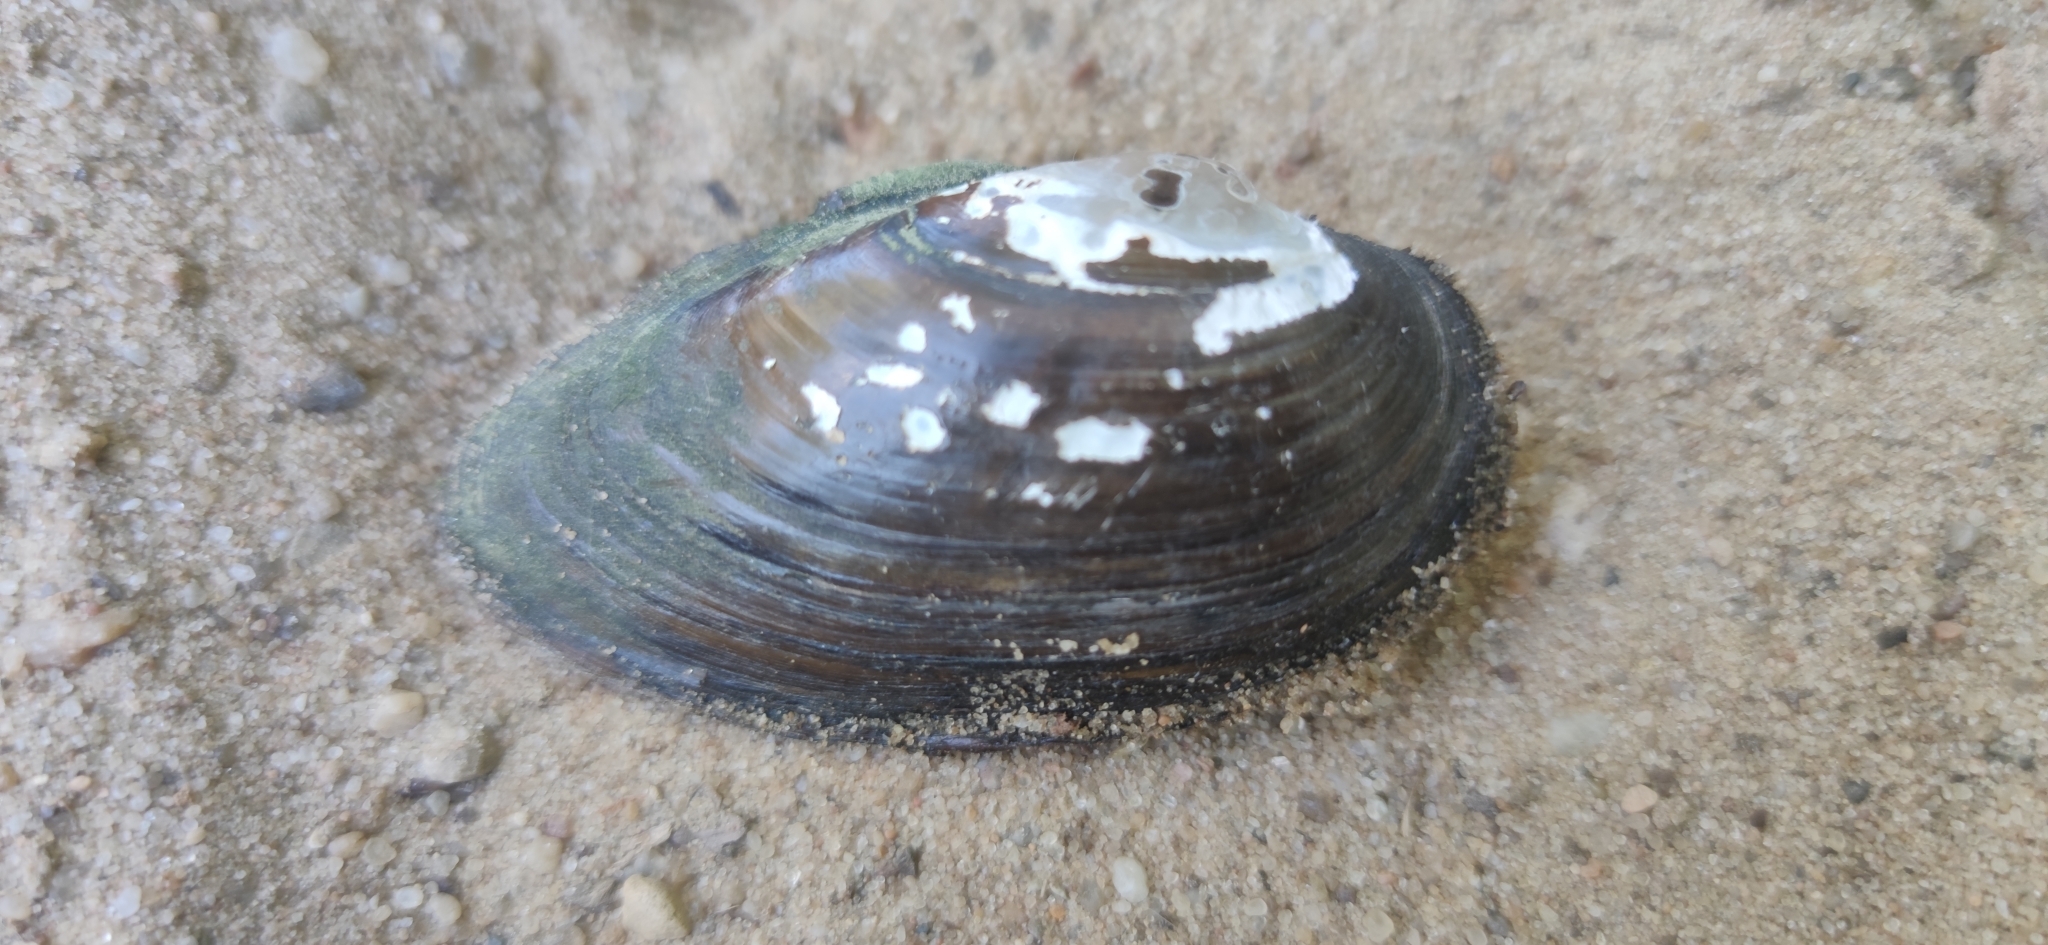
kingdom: Animalia
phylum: Mollusca
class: Bivalvia
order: Unionida
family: Unionidae
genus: Unio
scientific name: Unio tumidus
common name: Swollen river mussel
